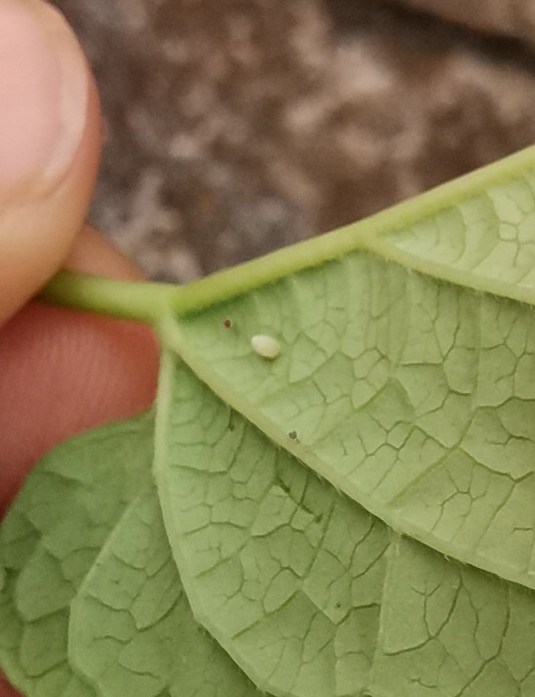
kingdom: Animalia
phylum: Arthropoda
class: Insecta
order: Lepidoptera
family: Nymphalidae
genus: Danaus
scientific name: Danaus gilippus
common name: Queen
